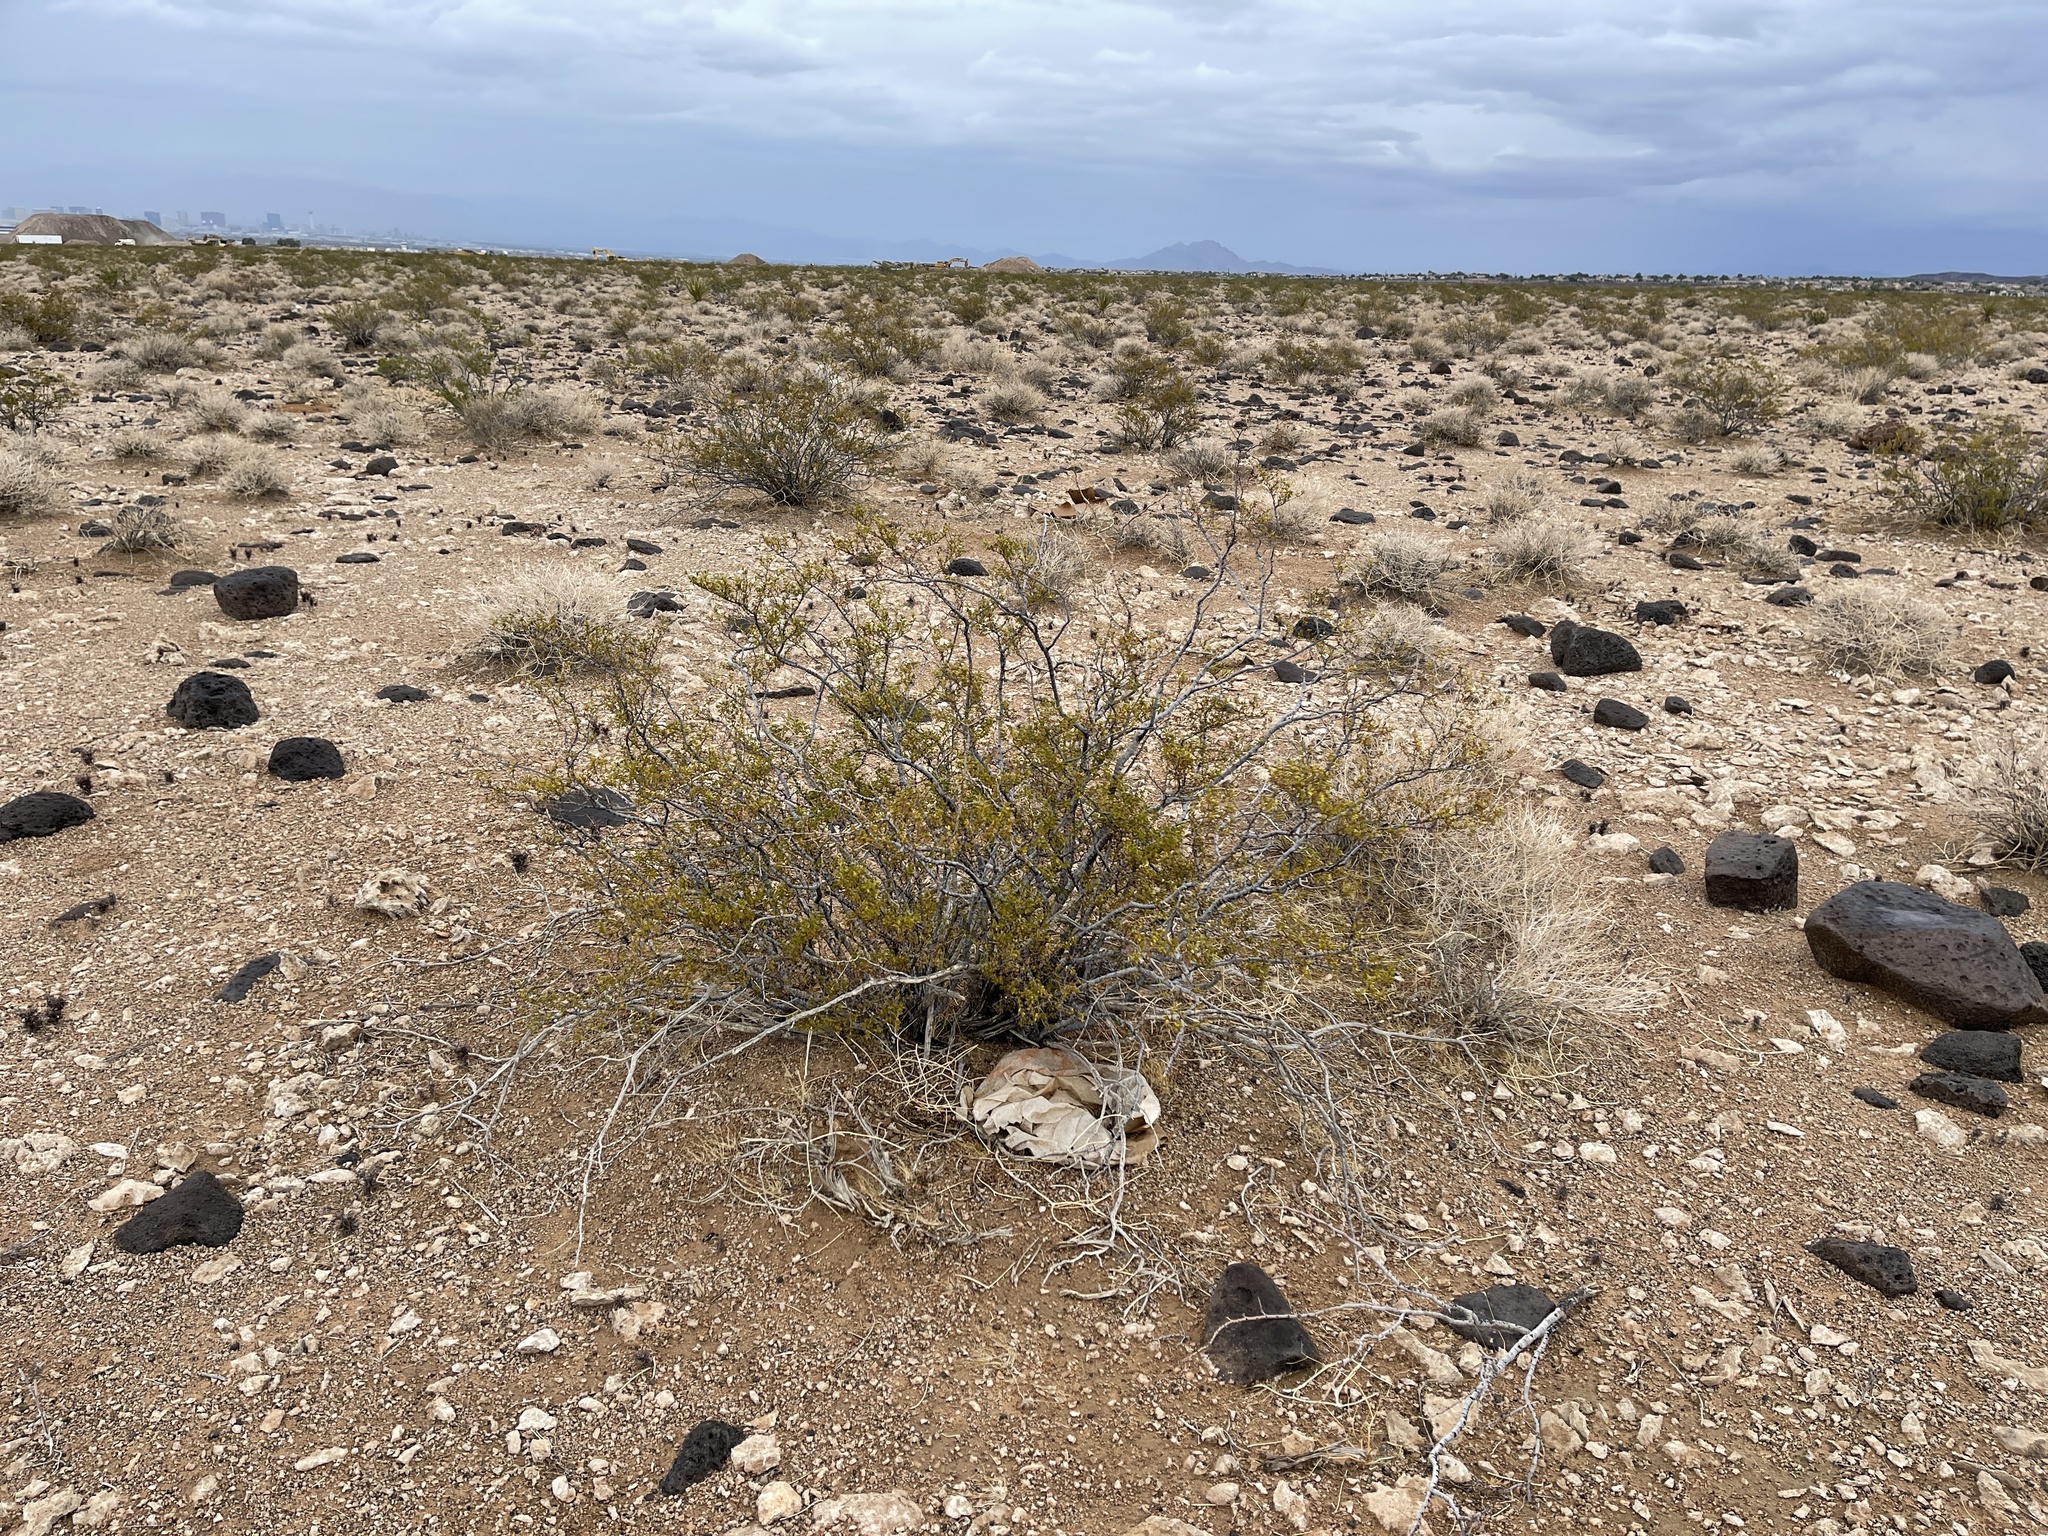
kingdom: Plantae
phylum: Tracheophyta
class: Magnoliopsida
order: Zygophyllales
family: Zygophyllaceae
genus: Larrea
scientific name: Larrea tridentata
